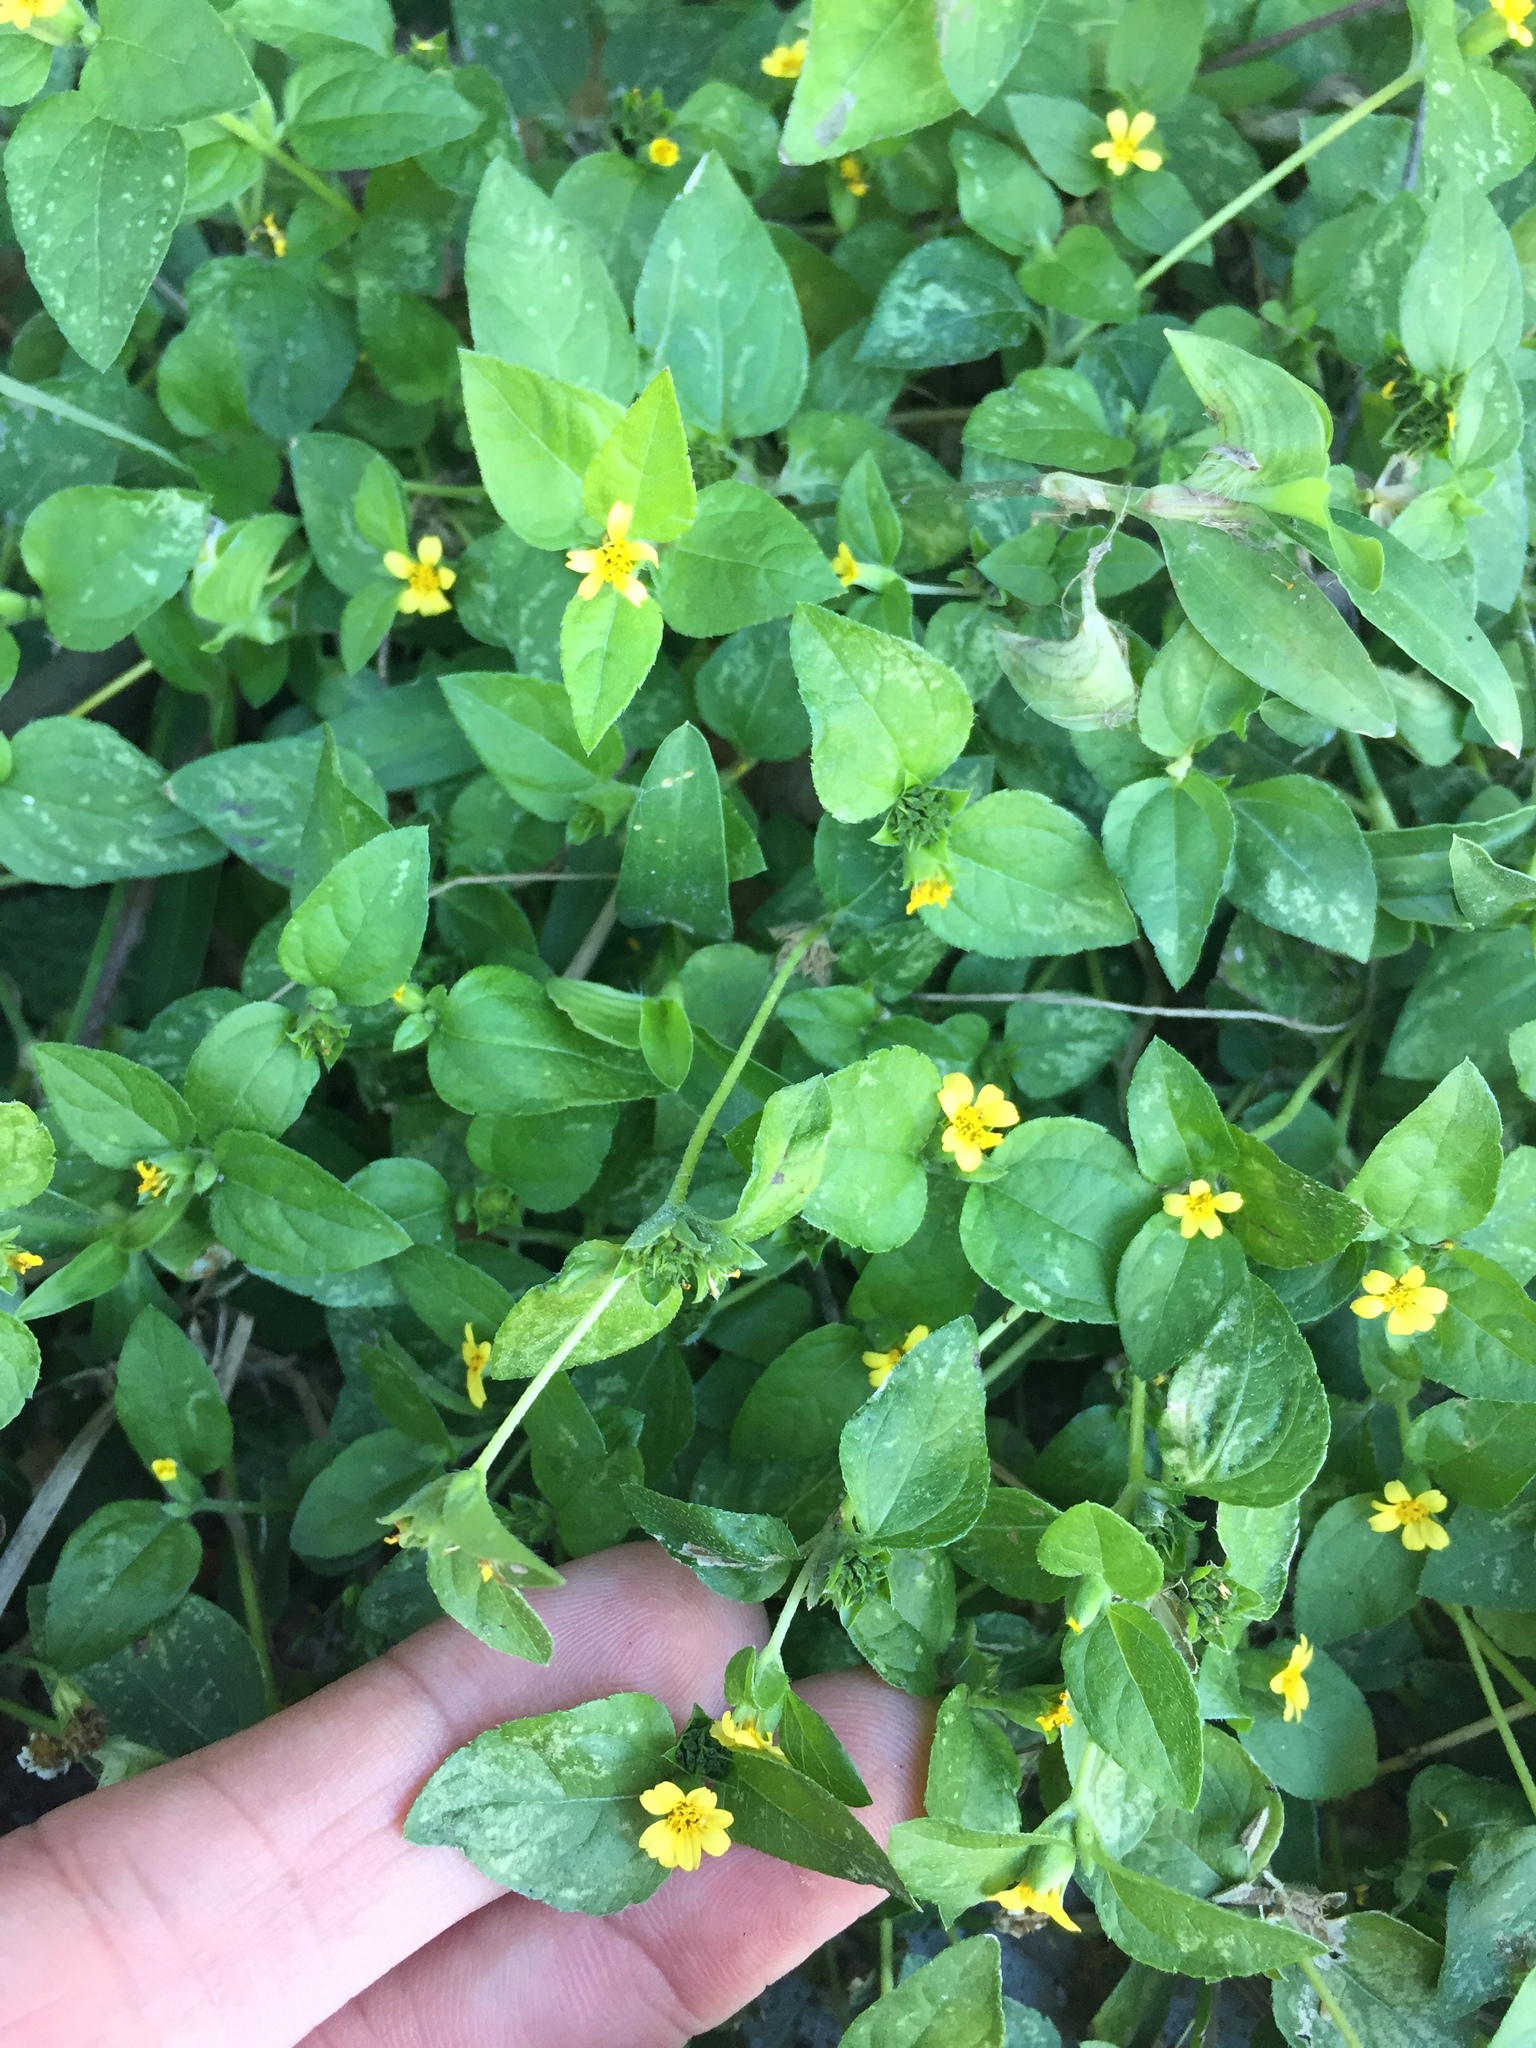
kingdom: Plantae
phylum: Tracheophyta
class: Magnoliopsida
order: Asterales
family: Asteraceae
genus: Calyptocarpus
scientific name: Calyptocarpus vialis
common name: Straggler daisy
